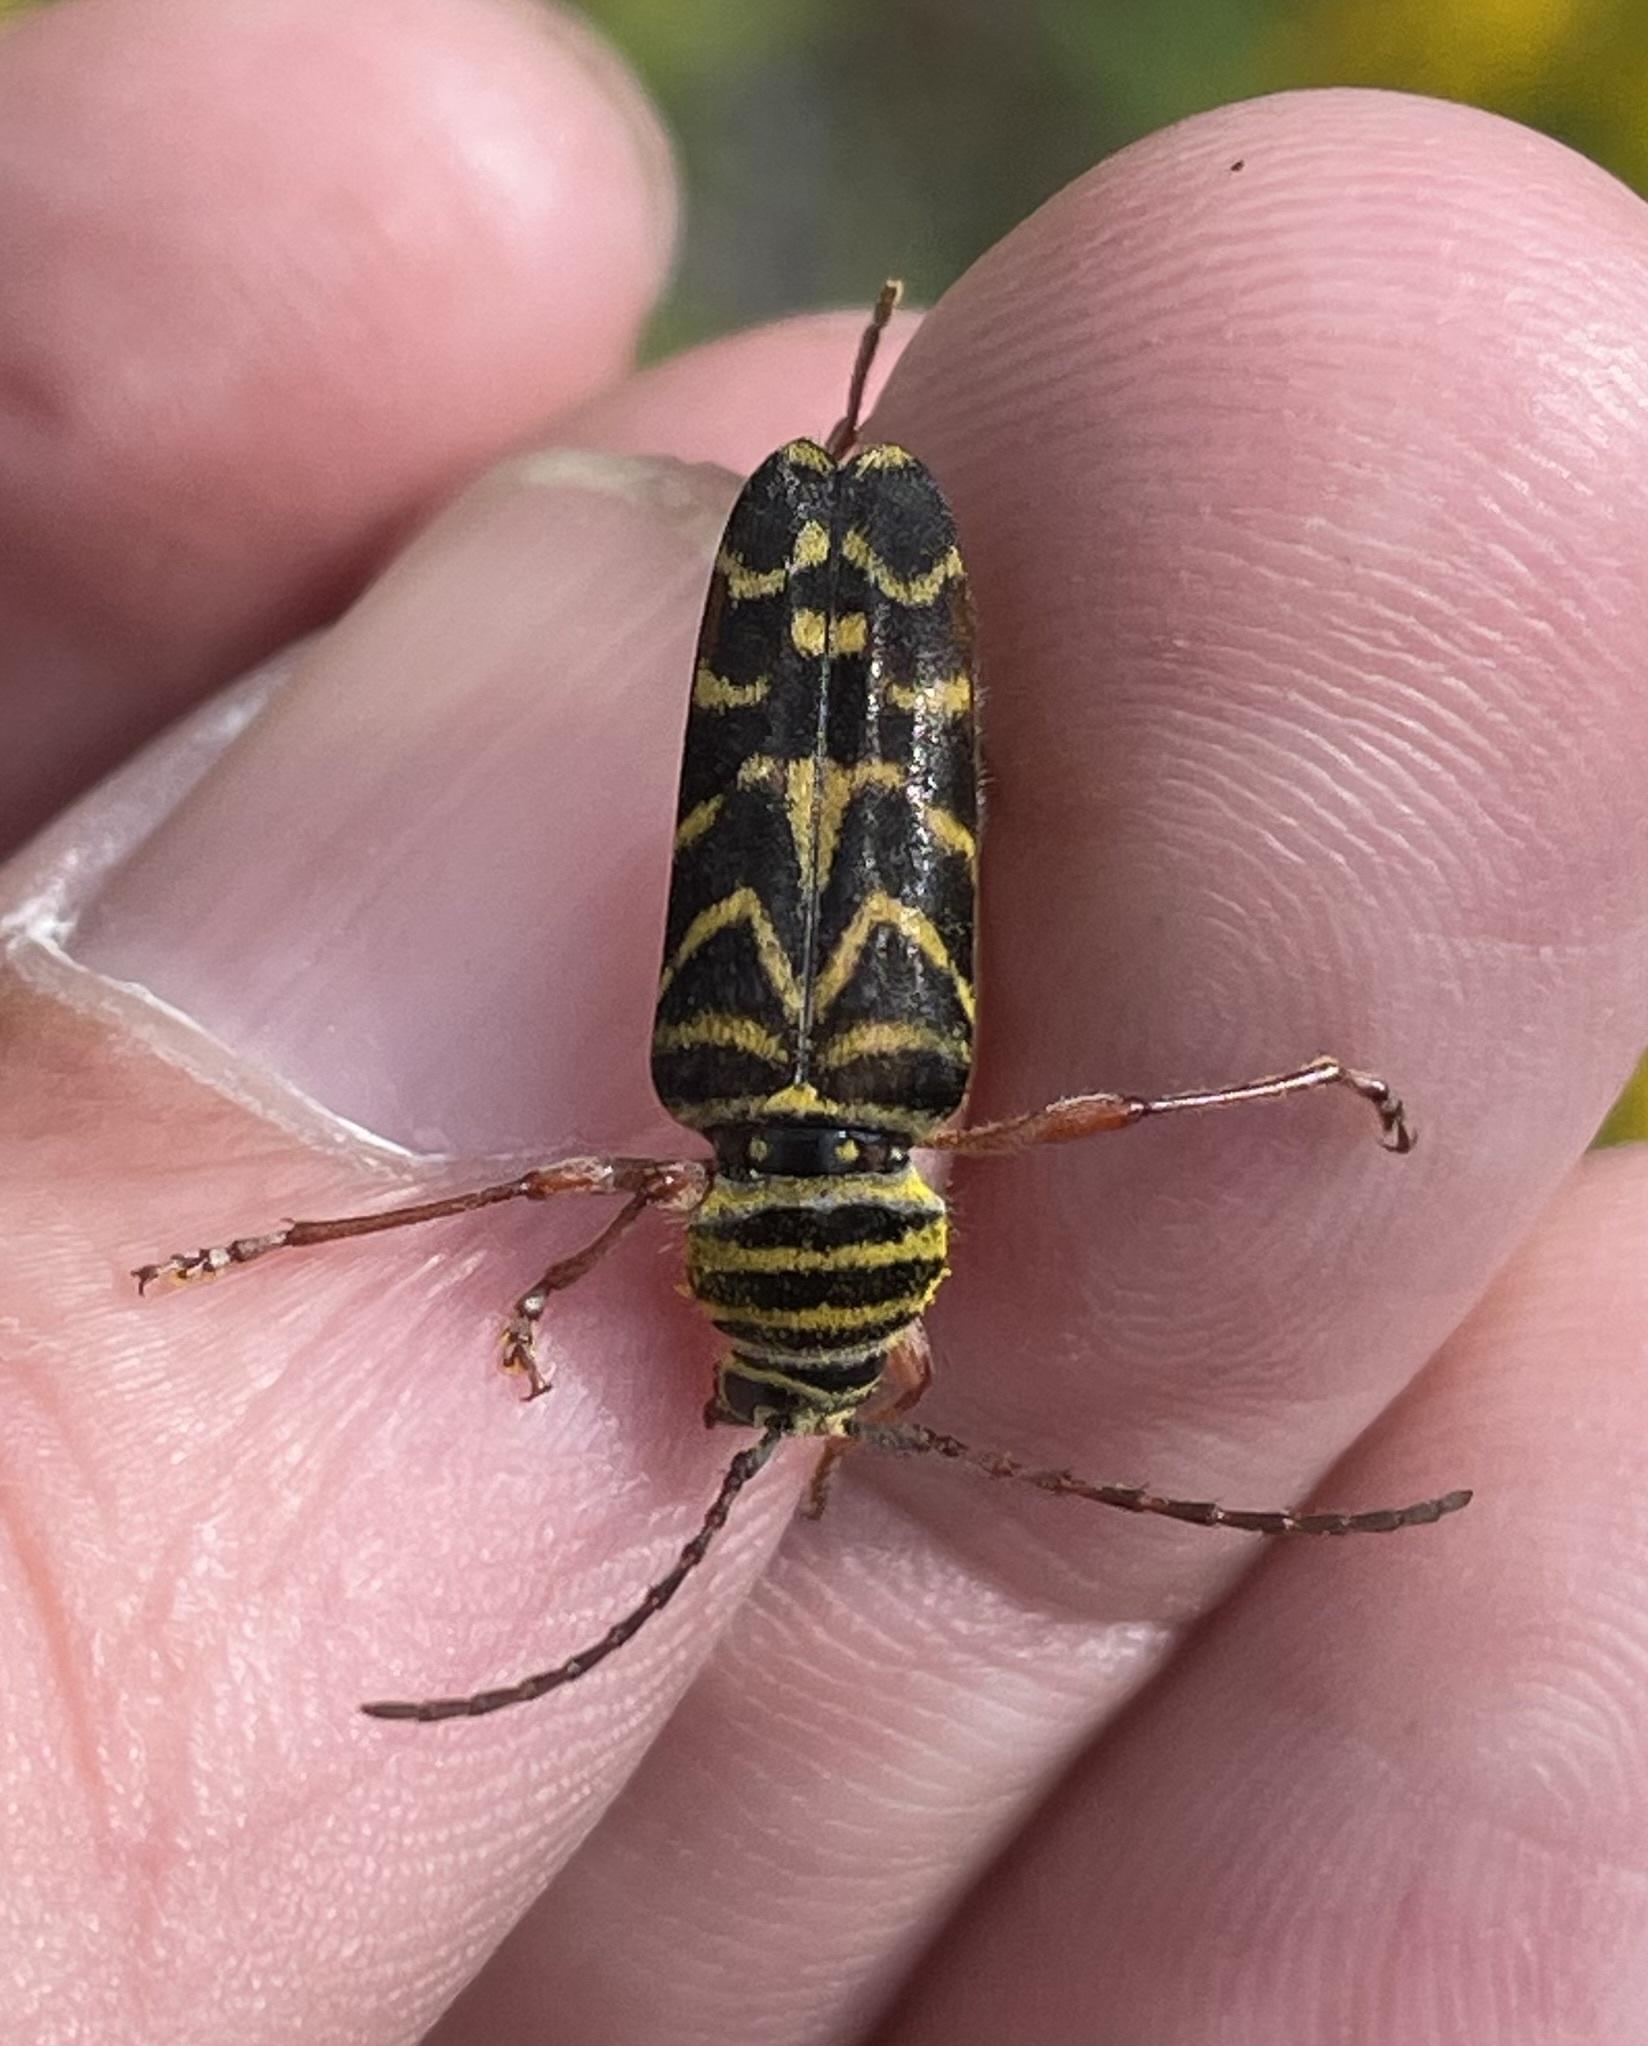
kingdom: Animalia
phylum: Arthropoda
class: Insecta
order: Coleoptera
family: Cerambycidae
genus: Megacyllene
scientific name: Megacyllene robiniae
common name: Locust borer
